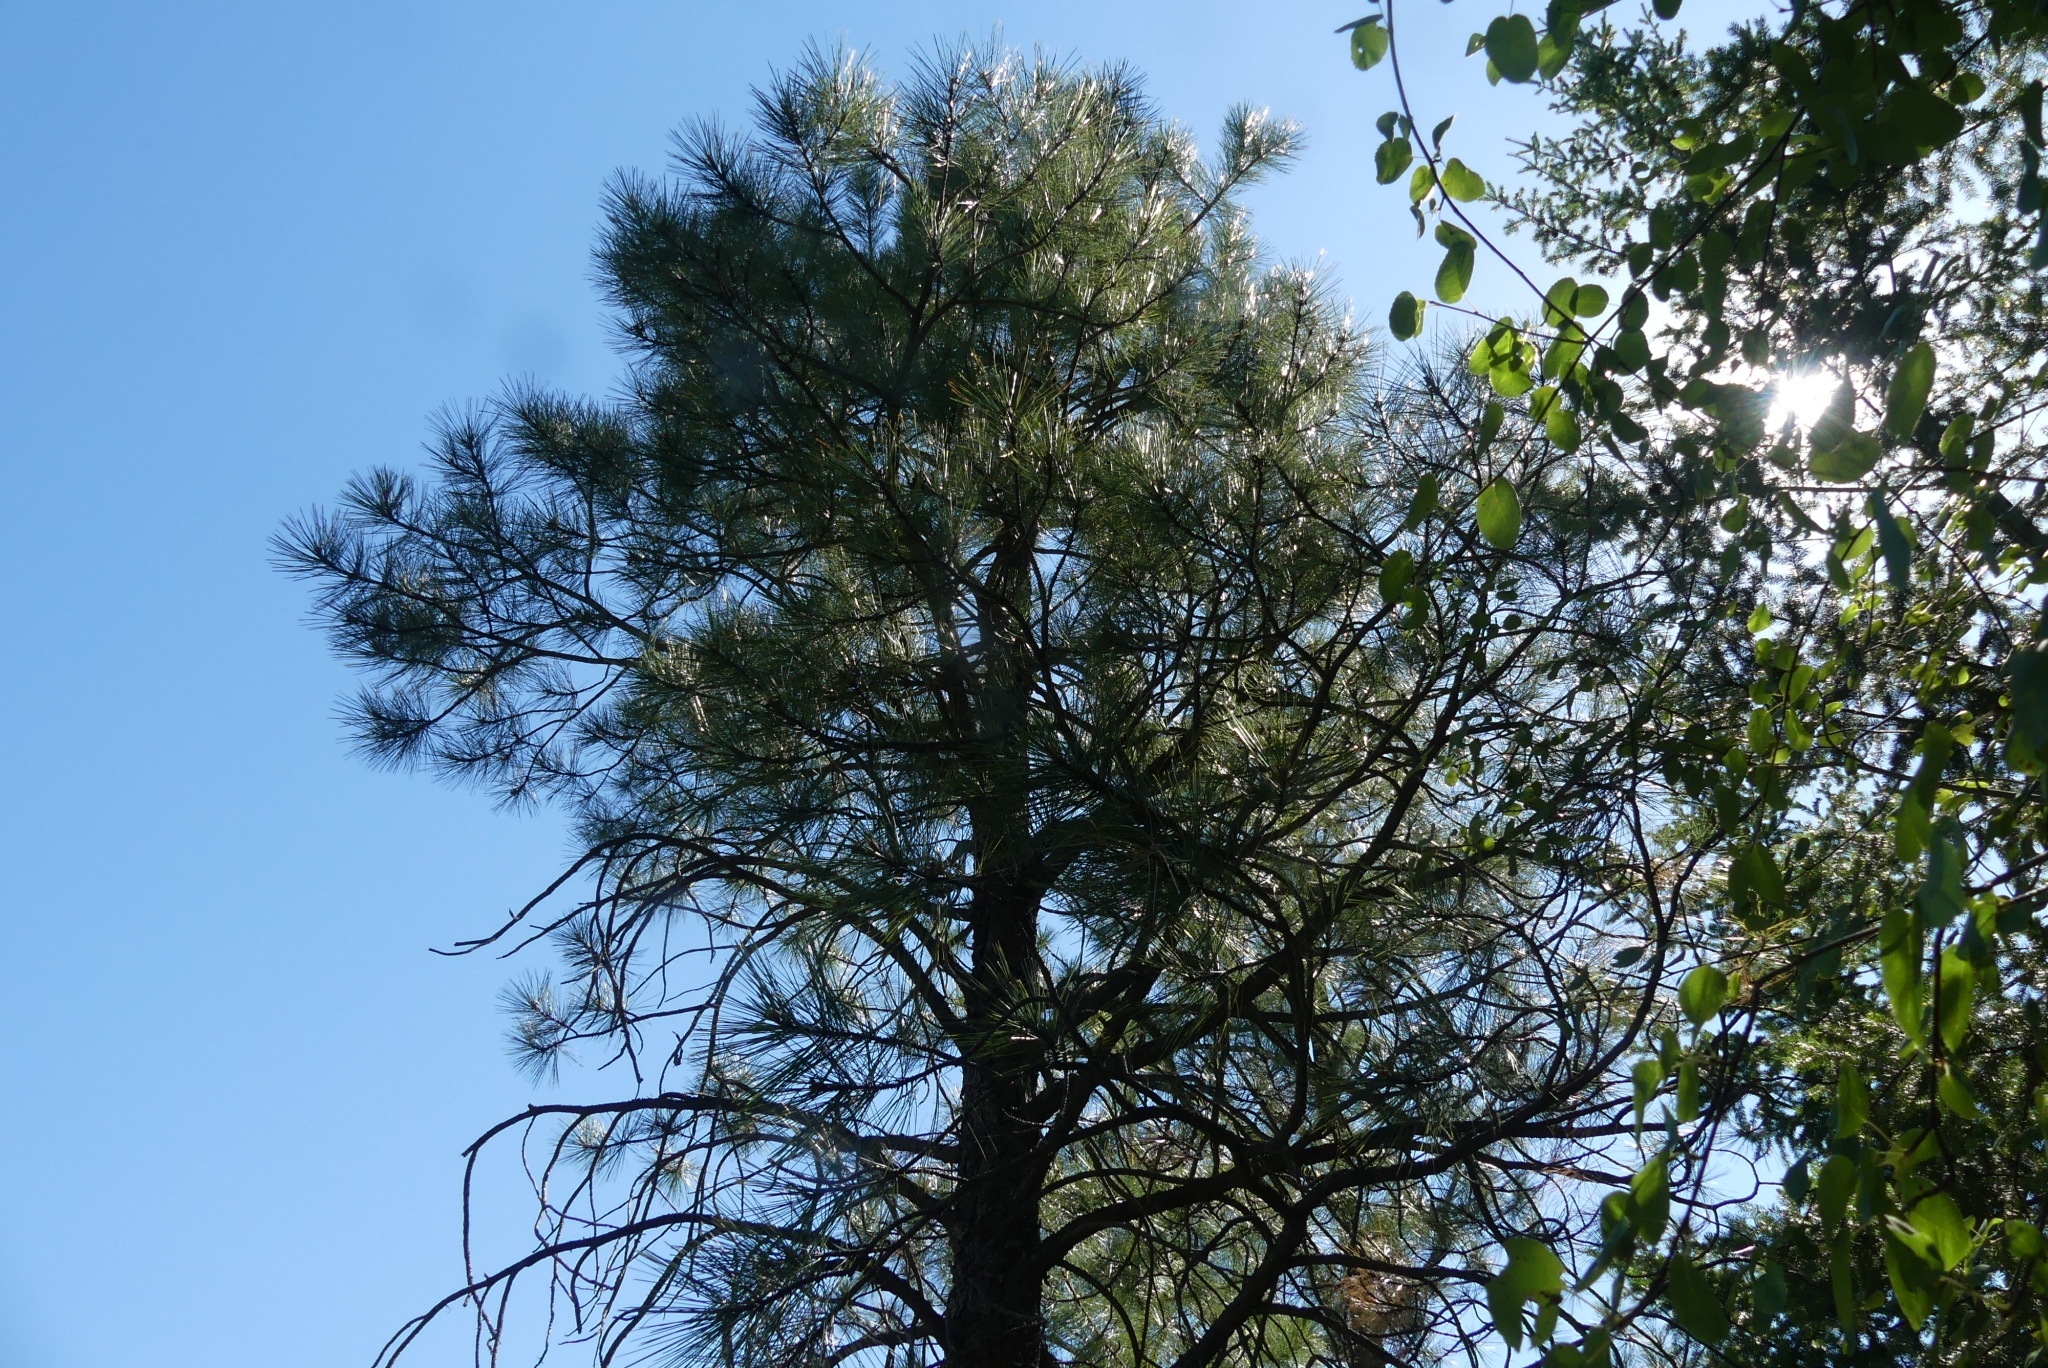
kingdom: Plantae
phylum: Tracheophyta
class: Pinopsida
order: Pinales
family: Pinaceae
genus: Pinus
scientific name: Pinus ponderosa
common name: Western yellow-pine
